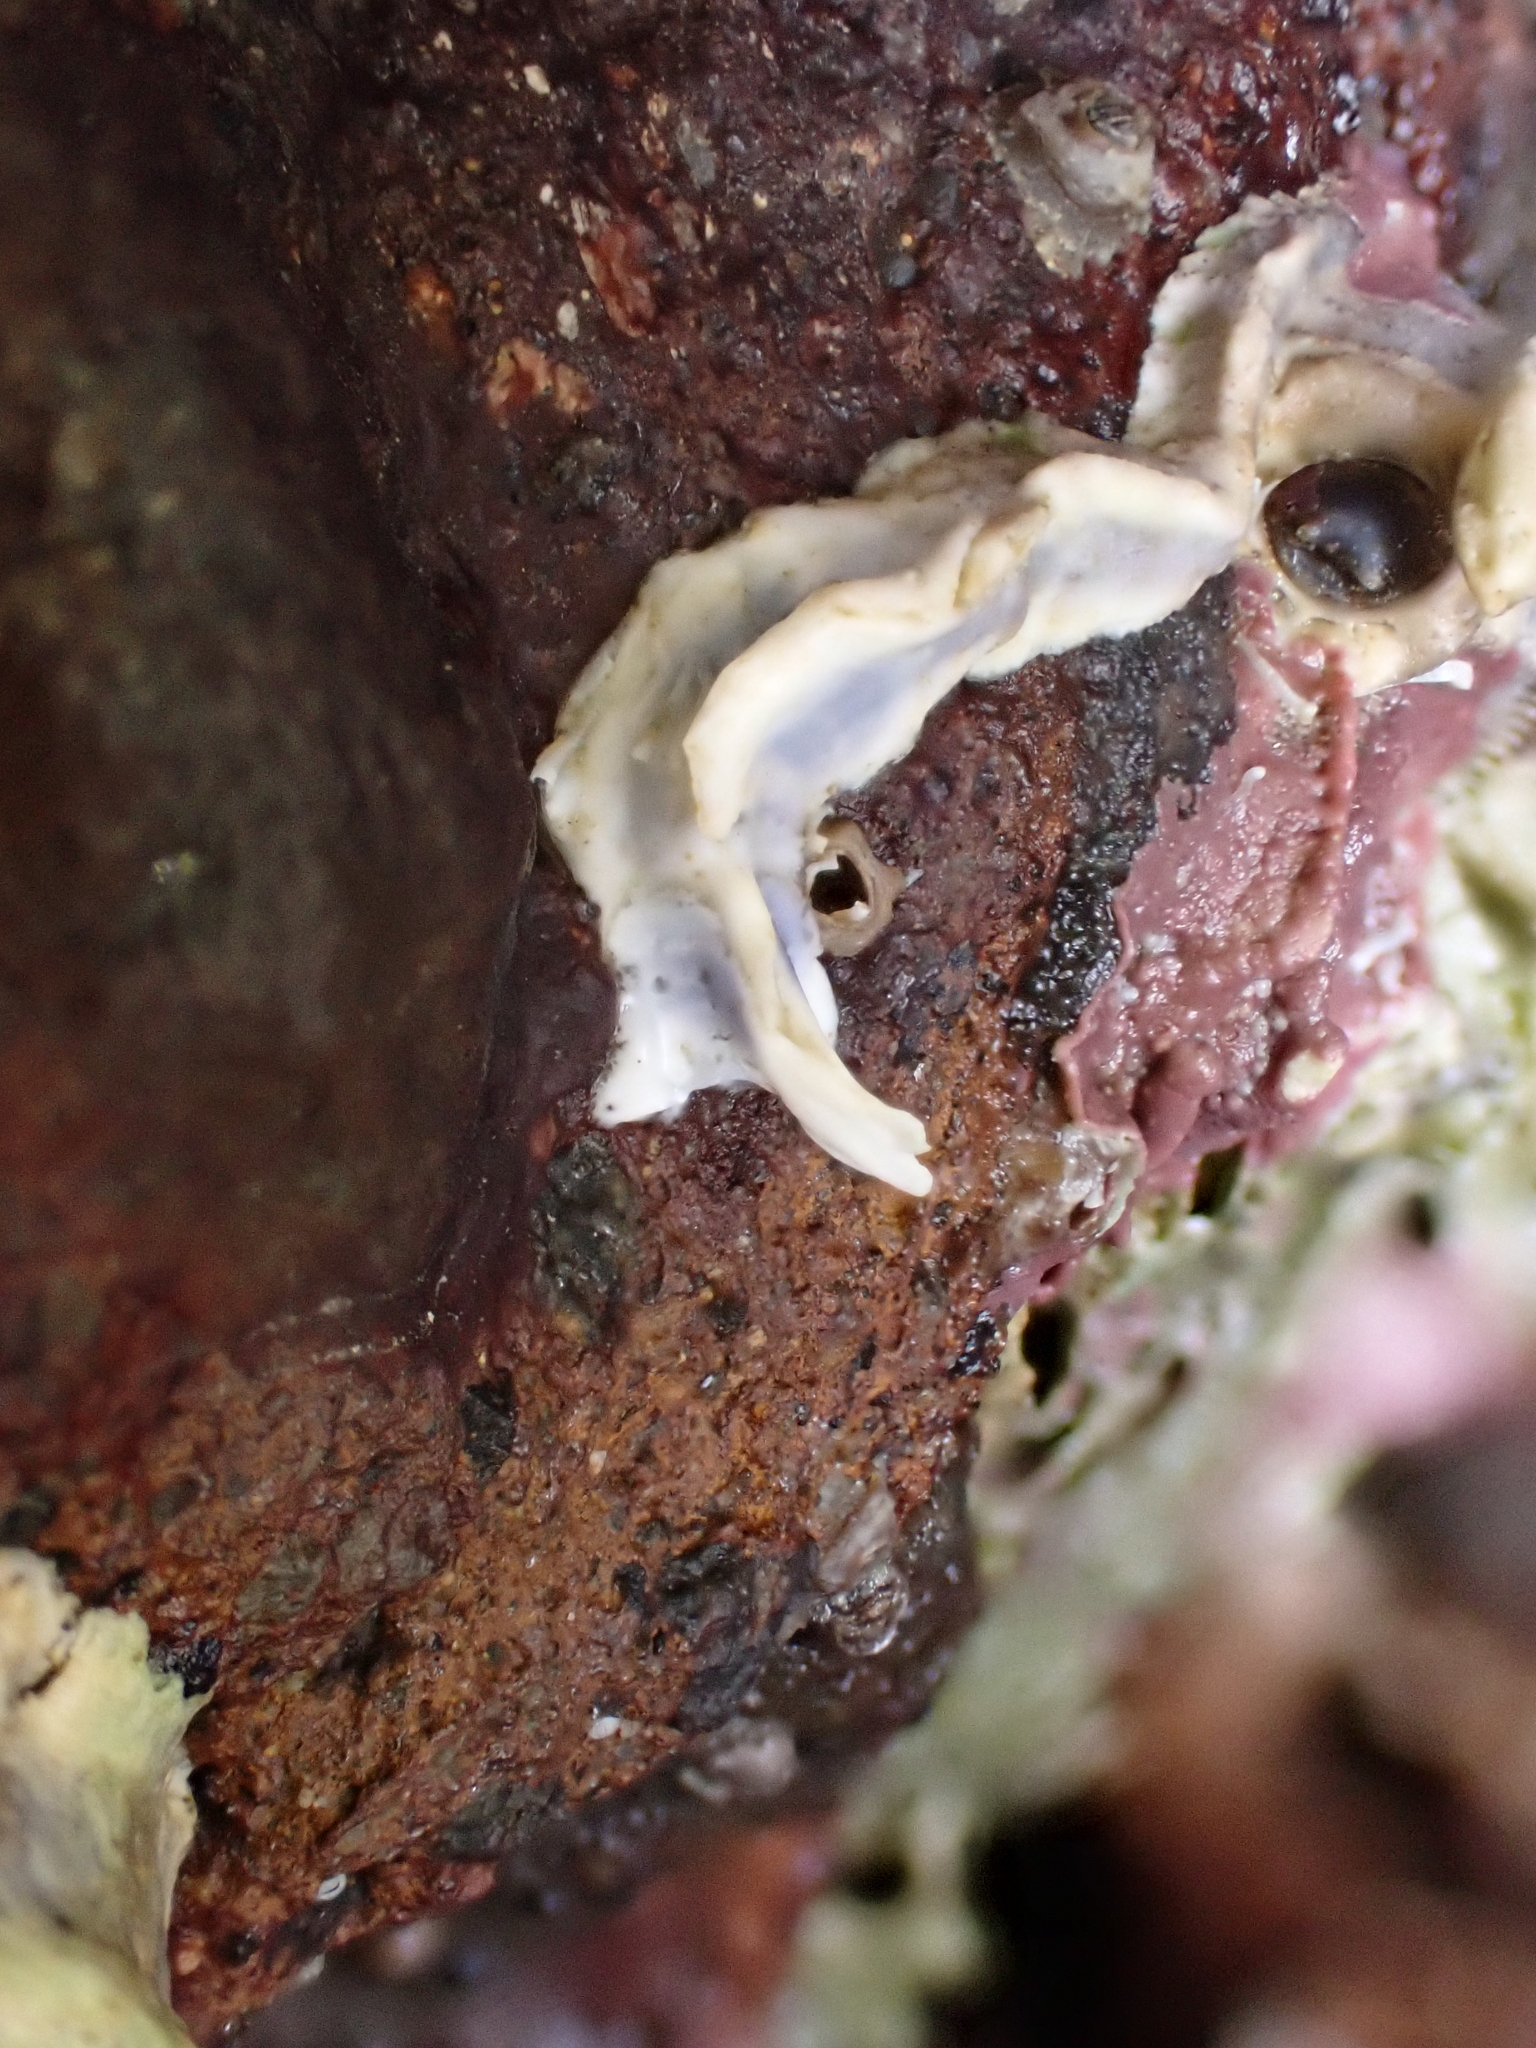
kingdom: Animalia
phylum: Annelida
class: Polychaeta
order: Sabellida
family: Serpulidae
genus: Spirobranchus
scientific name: Spirobranchus cariniferus
